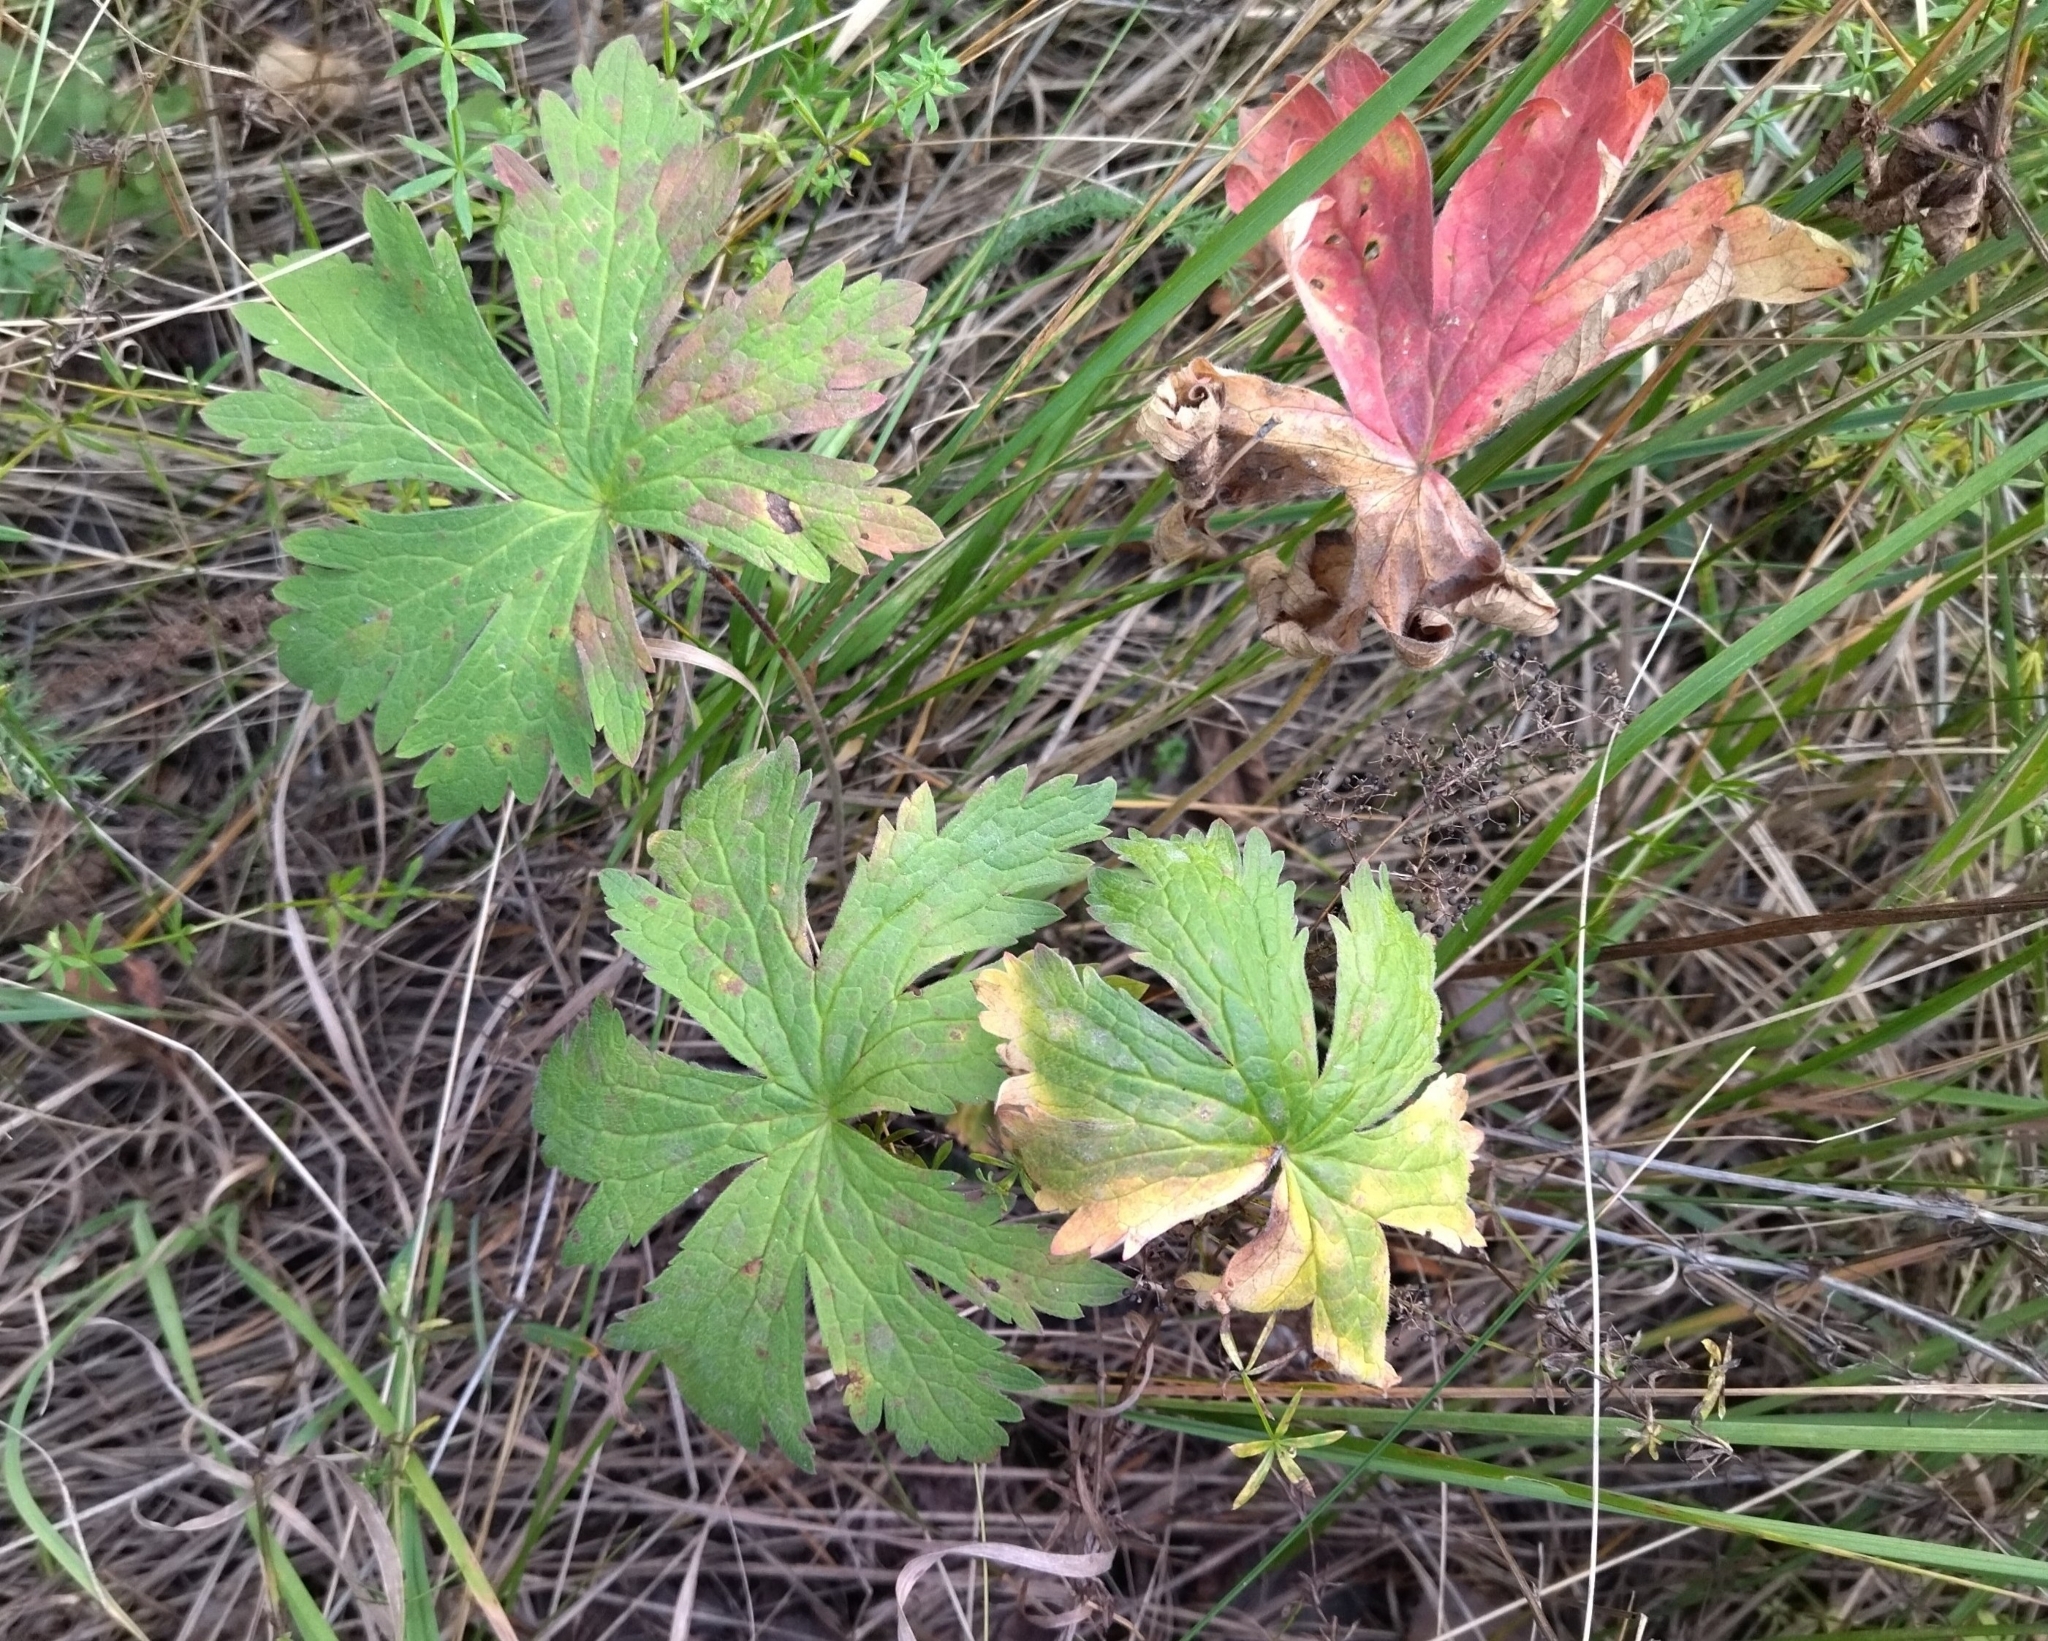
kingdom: Plantae
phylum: Tracheophyta
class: Magnoliopsida
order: Geraniales
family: Geraniaceae
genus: Geranium
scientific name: Geranium sylvaticum
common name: Wood crane's-bill
